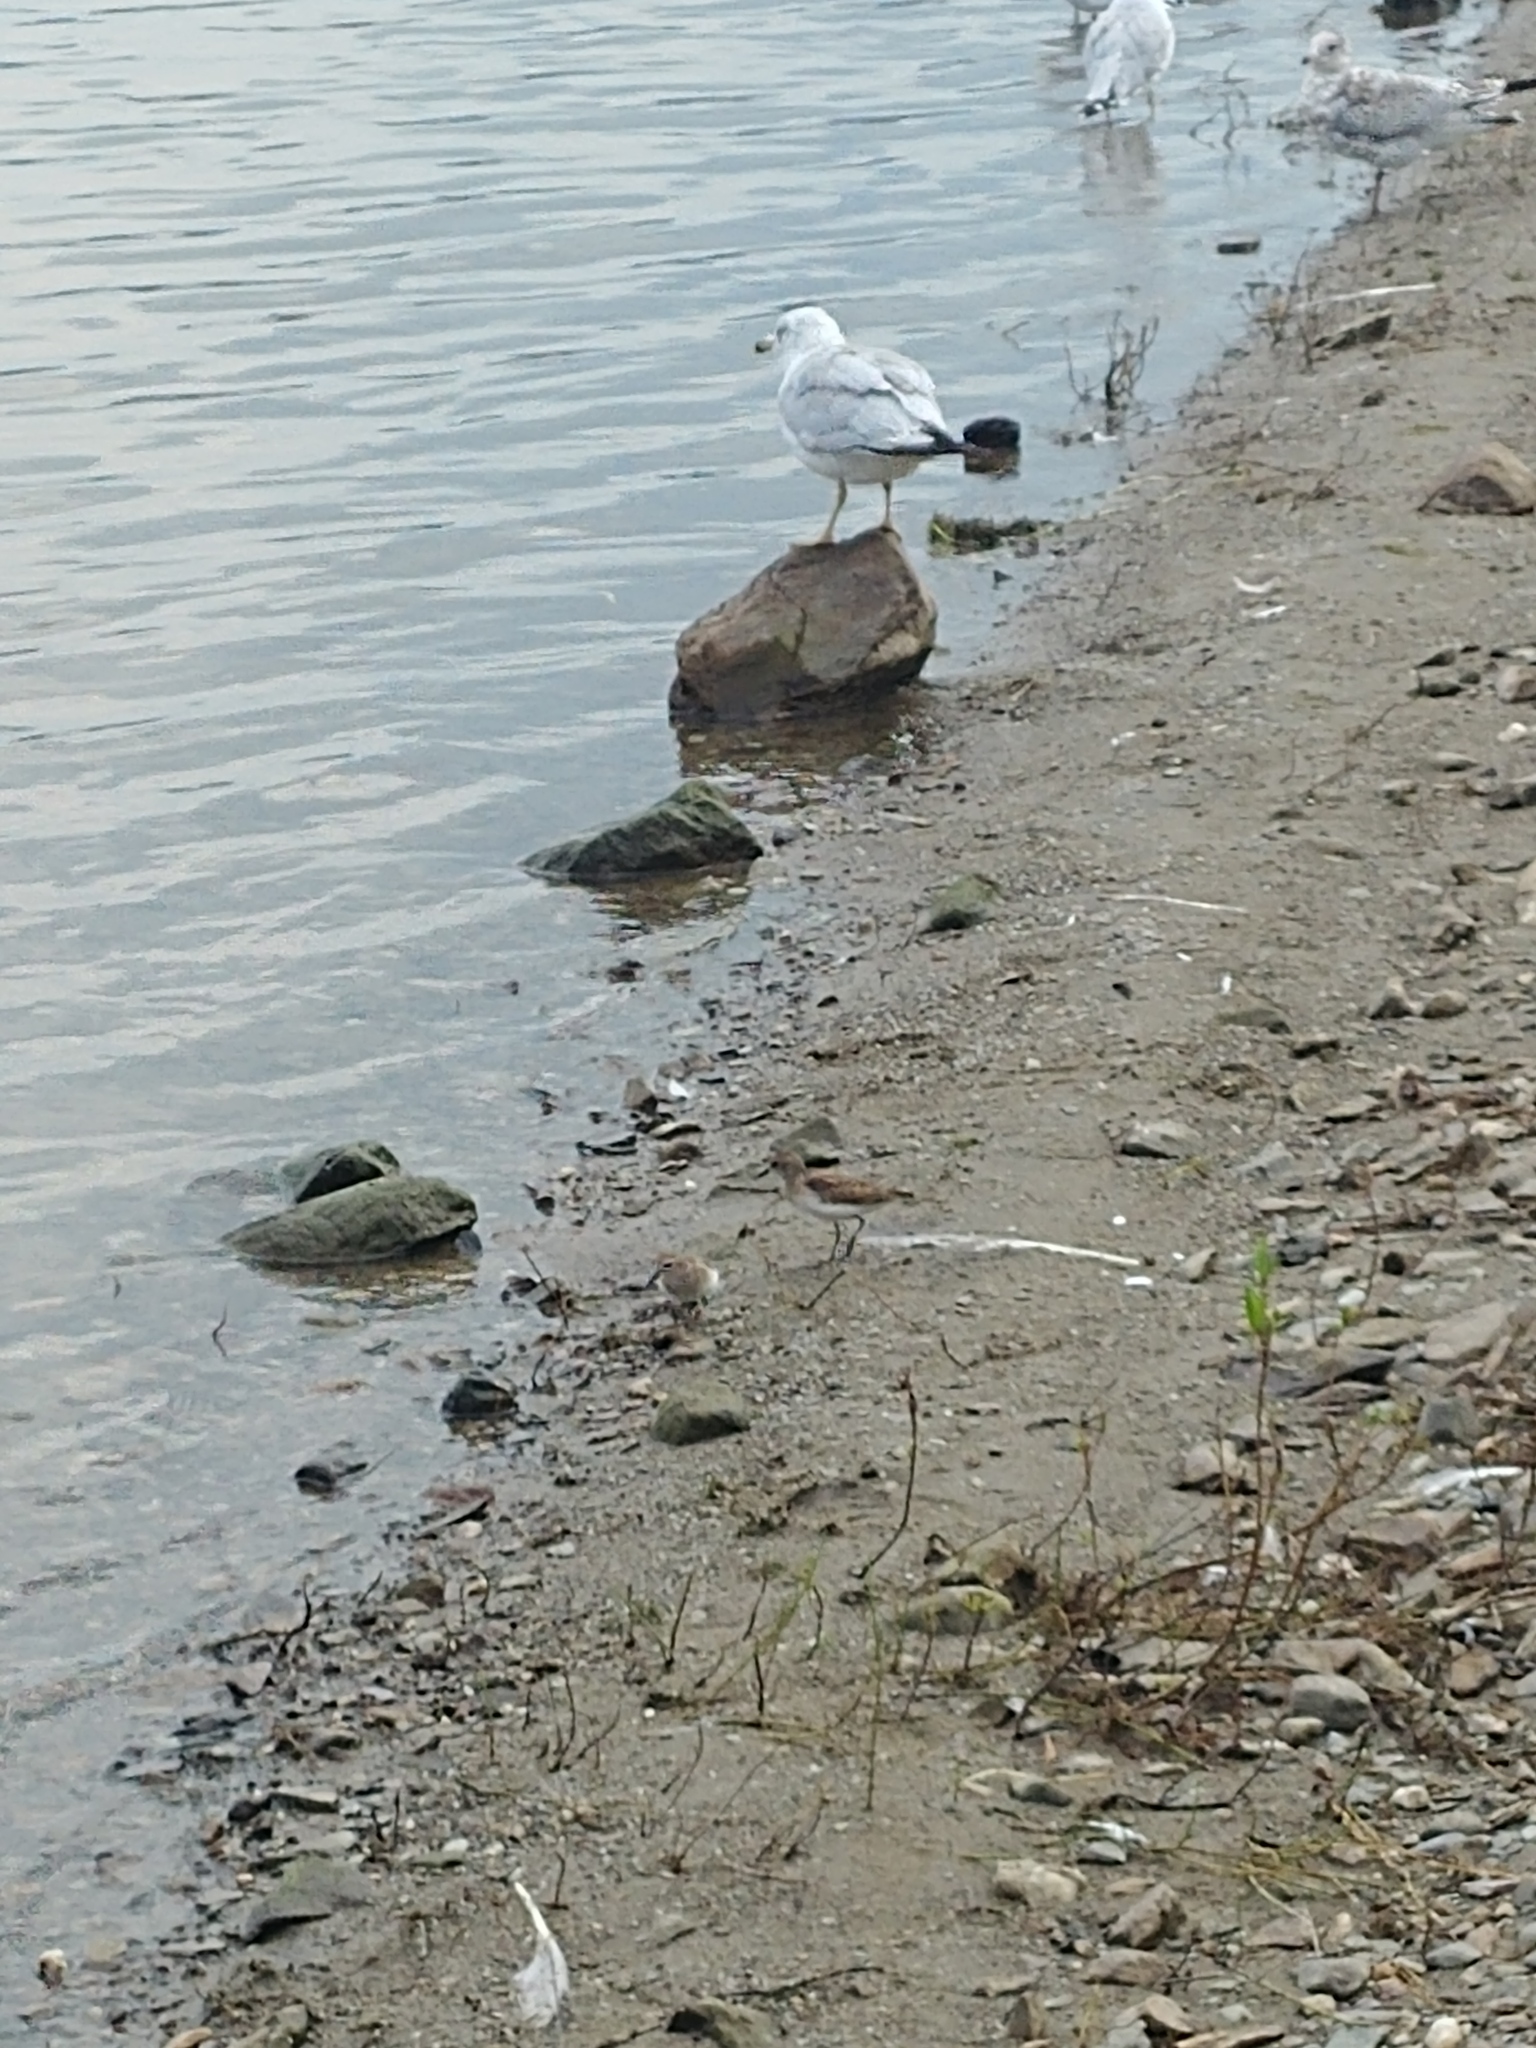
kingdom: Animalia
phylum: Chordata
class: Aves
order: Charadriiformes
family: Scolopacidae
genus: Calidris
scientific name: Calidris minutilla
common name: Least sandpiper
